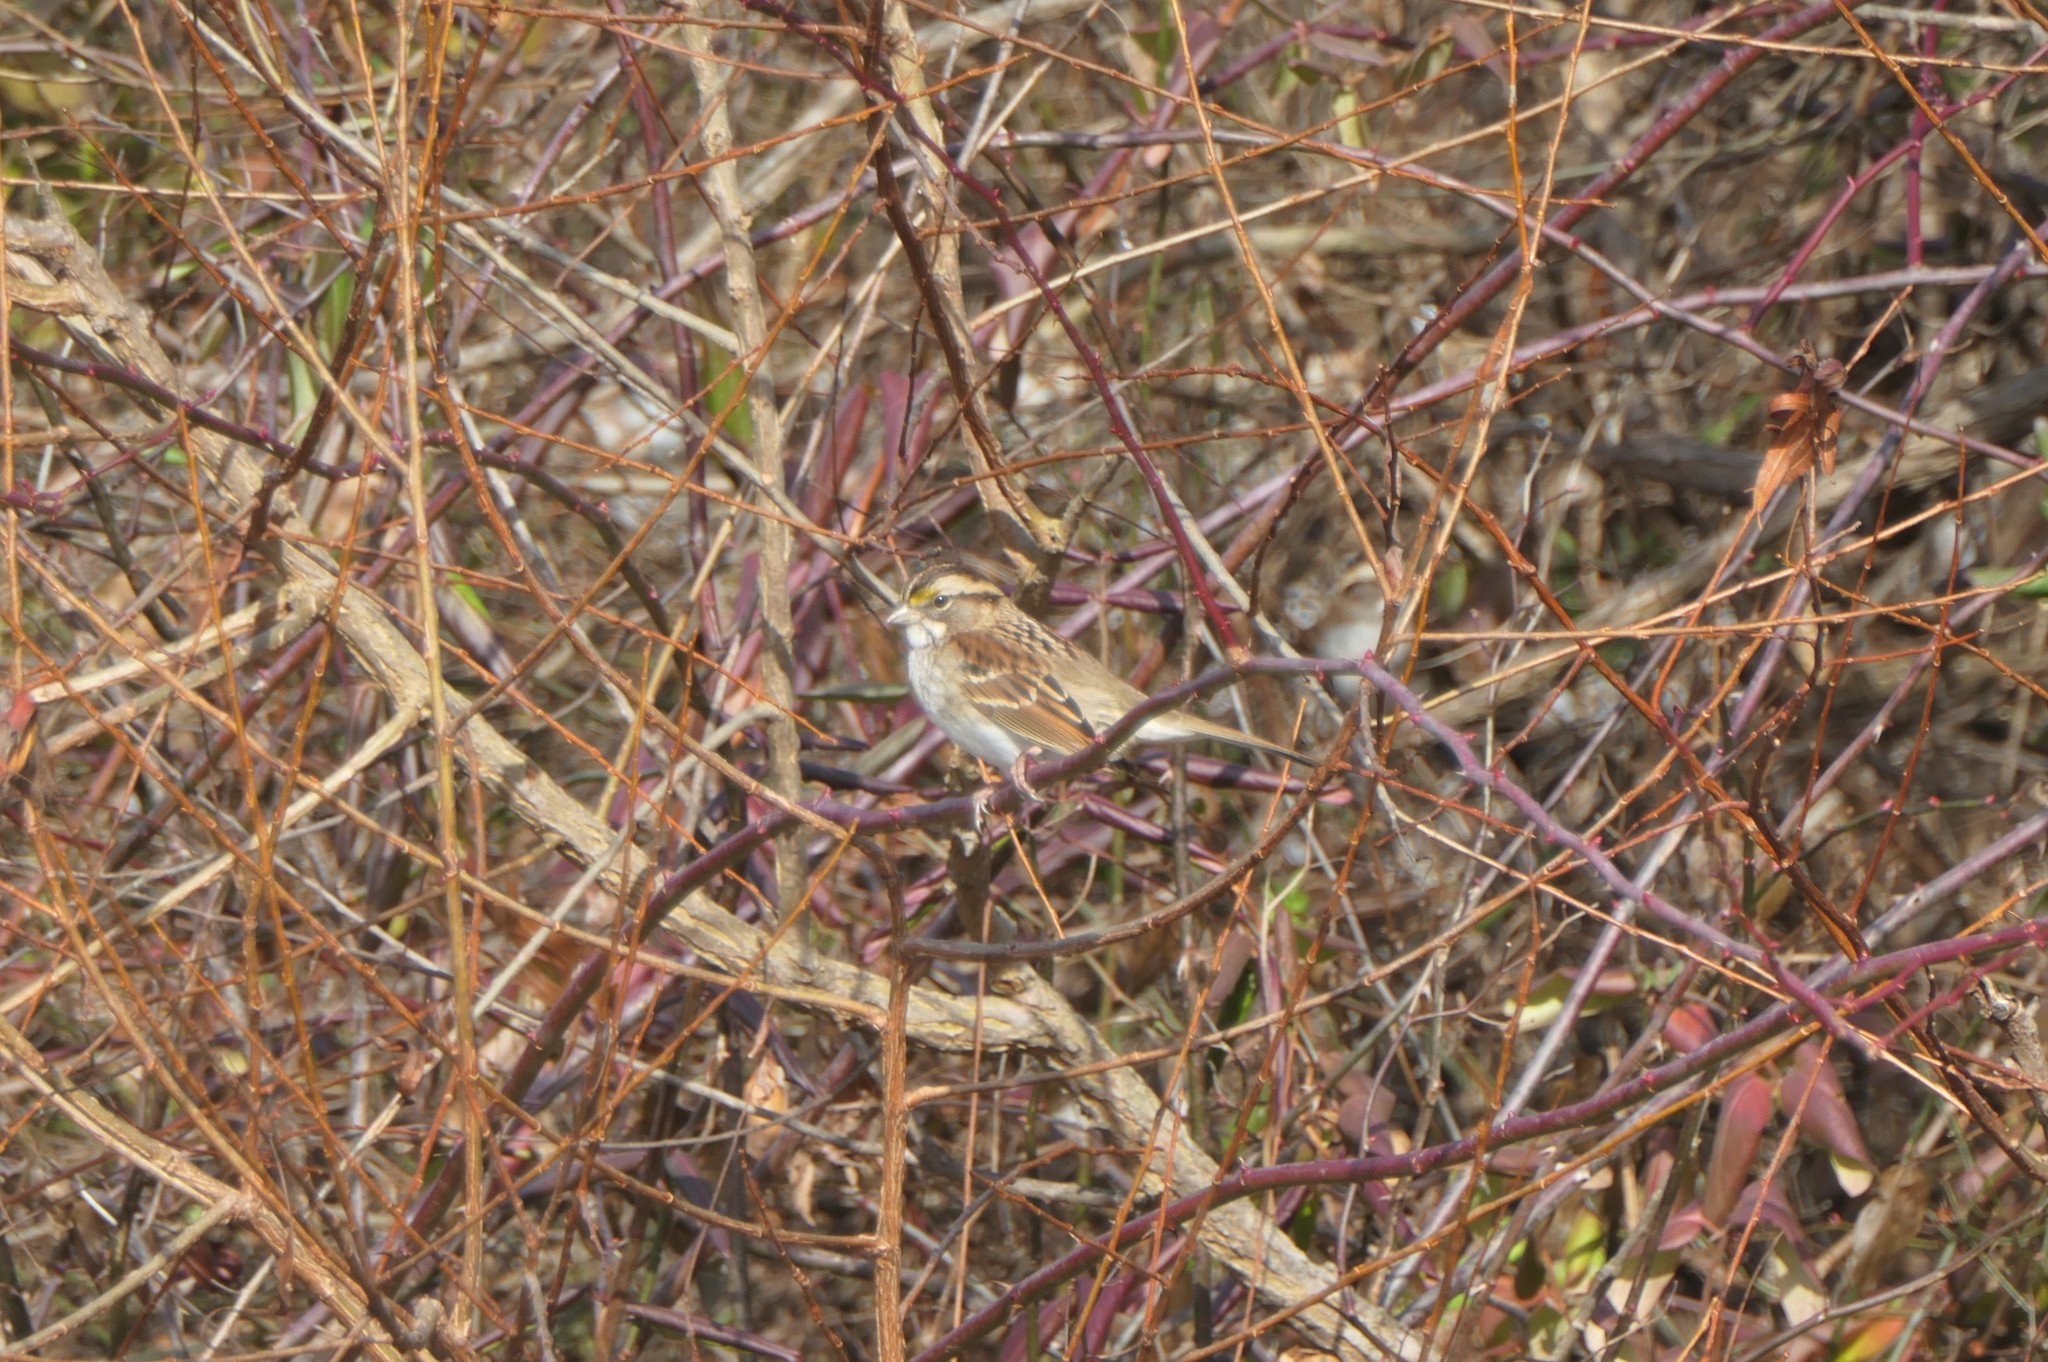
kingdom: Animalia
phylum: Chordata
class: Aves
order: Passeriformes
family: Passerellidae
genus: Zonotrichia
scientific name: Zonotrichia albicollis
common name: White-throated sparrow
